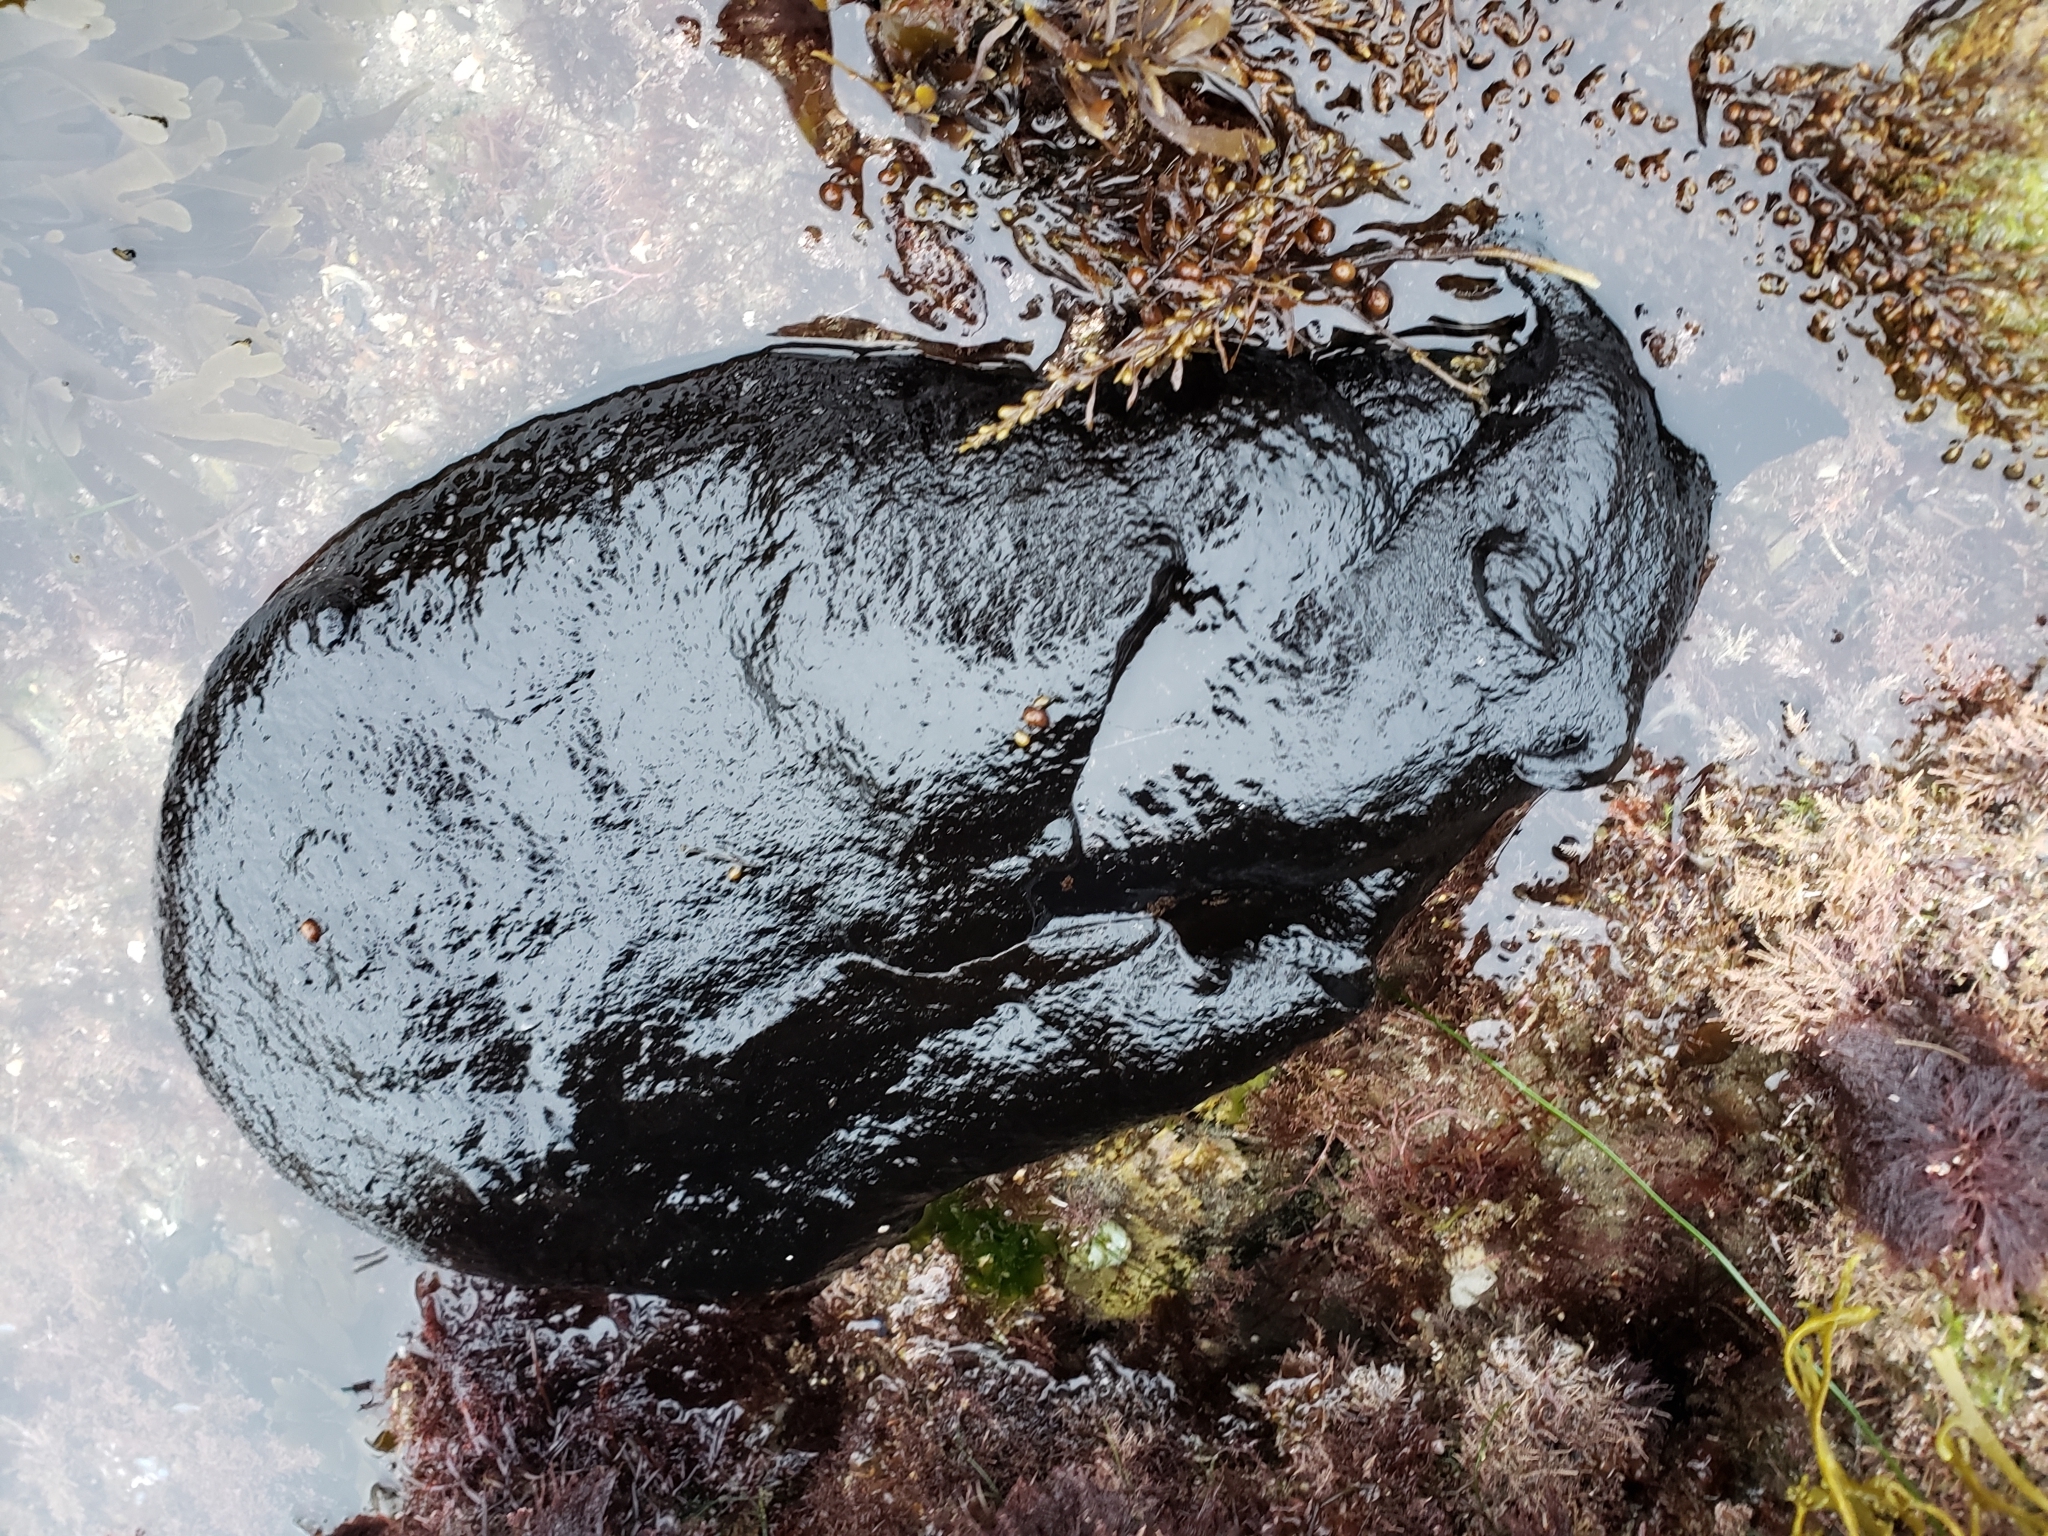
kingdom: Animalia
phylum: Mollusca
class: Gastropoda
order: Aplysiida
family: Aplysiidae
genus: Aplysia
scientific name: Aplysia vaccaria
